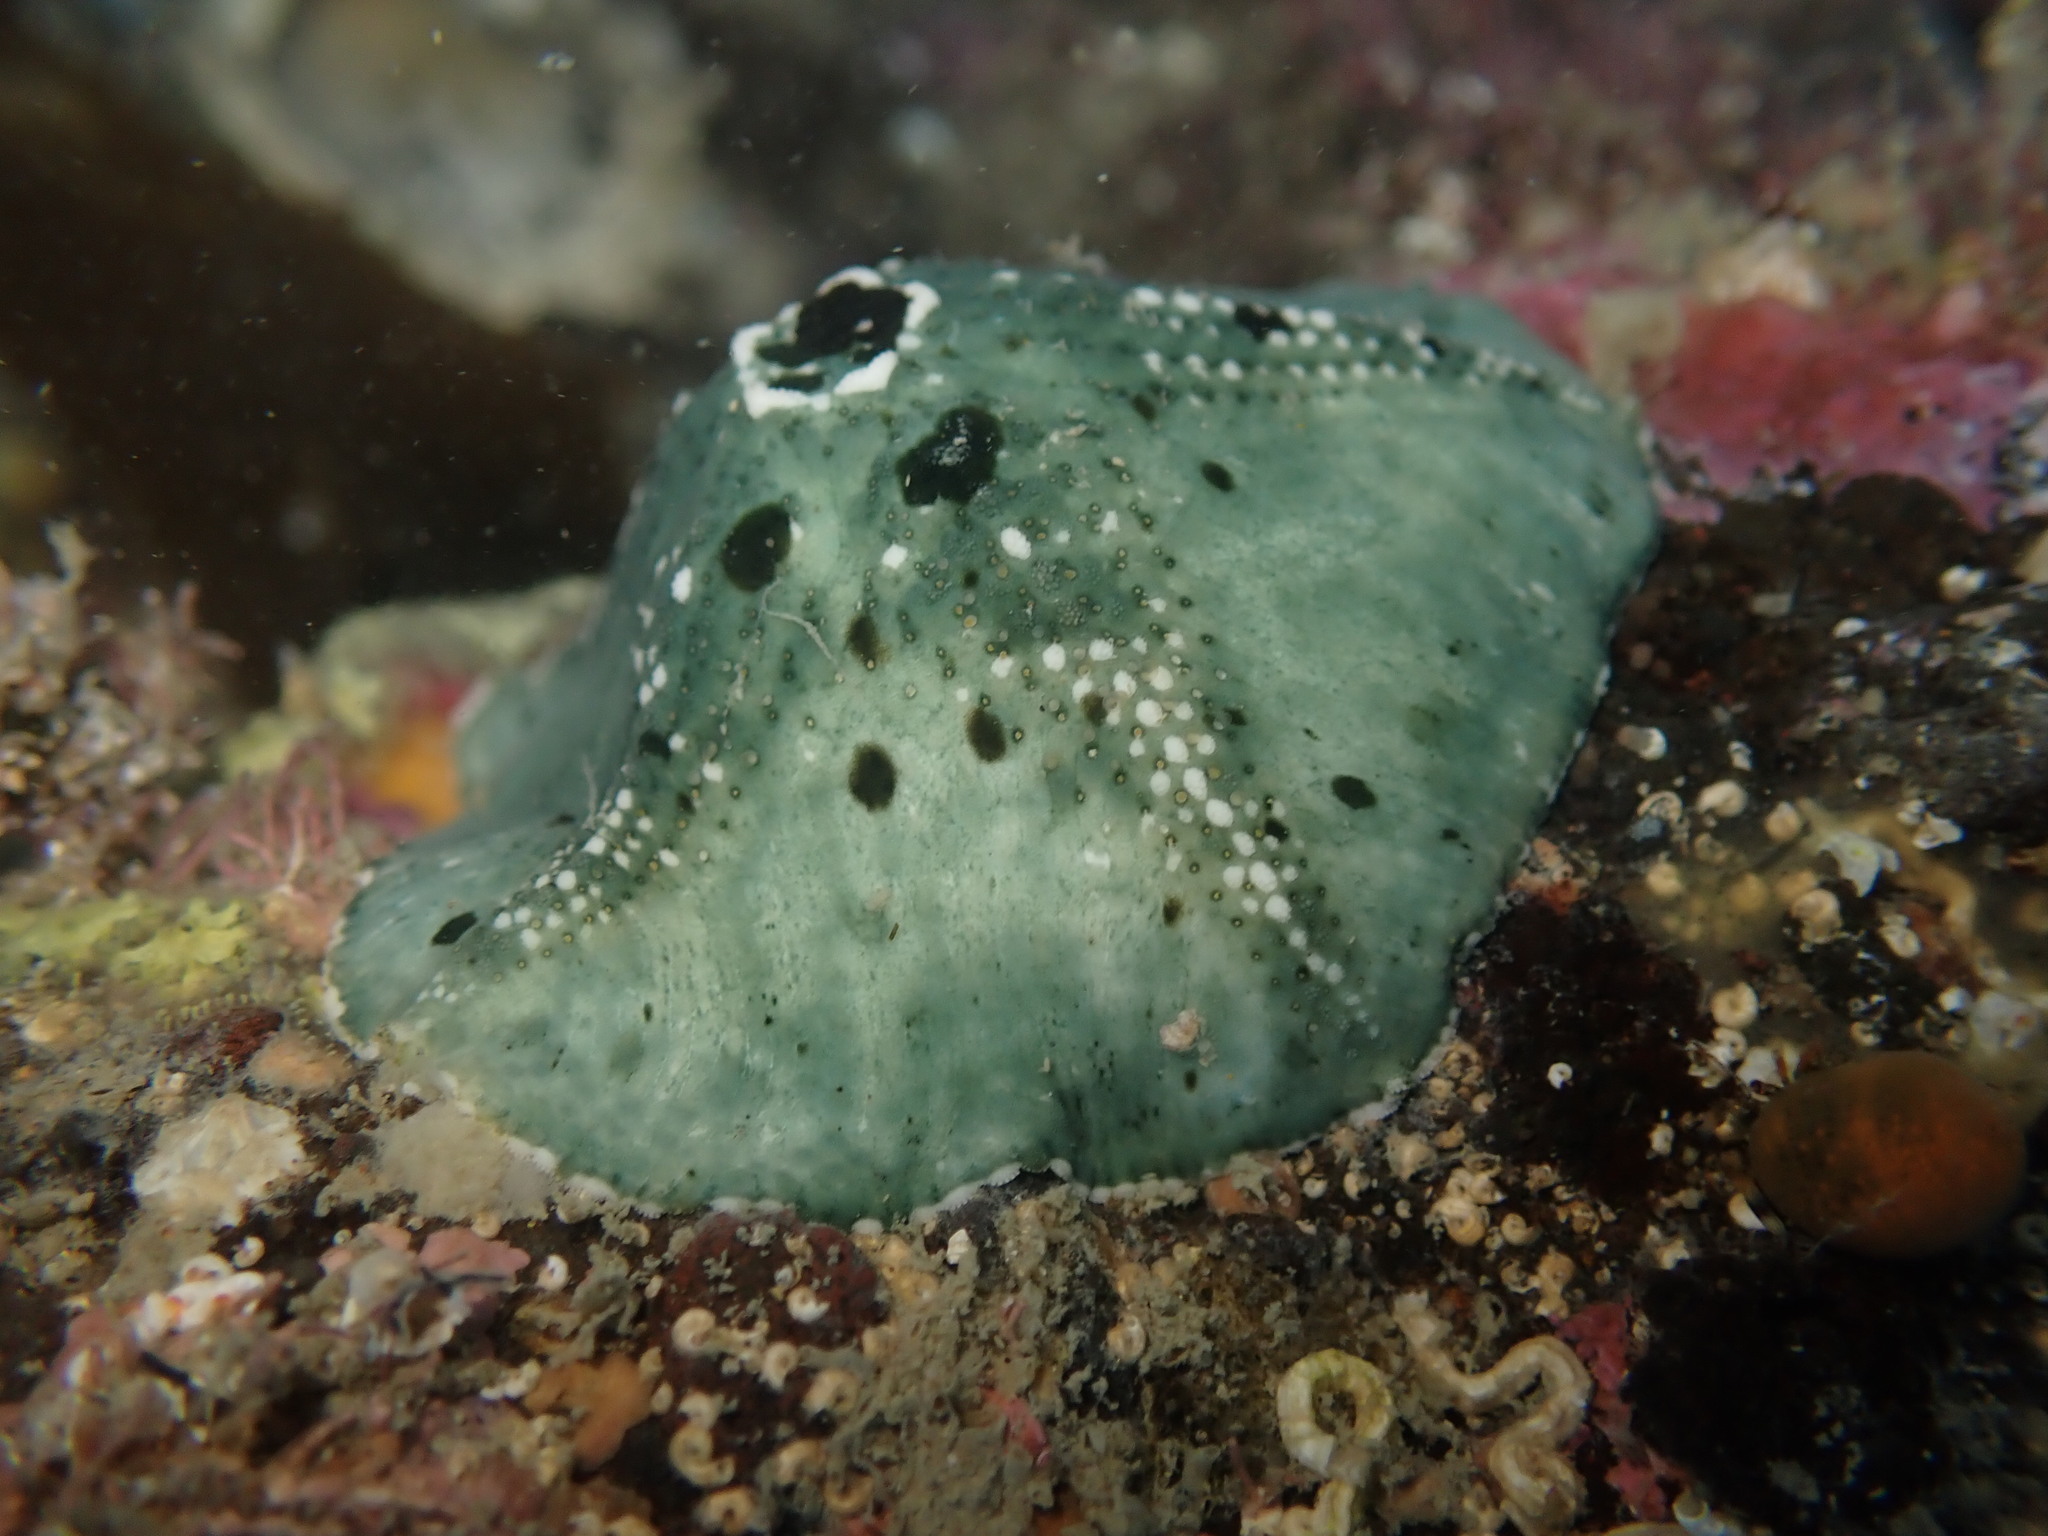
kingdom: Animalia
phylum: Echinodermata
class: Asteroidea
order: Valvatida
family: Asterinidae
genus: Stegnaster
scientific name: Stegnaster inflatus
